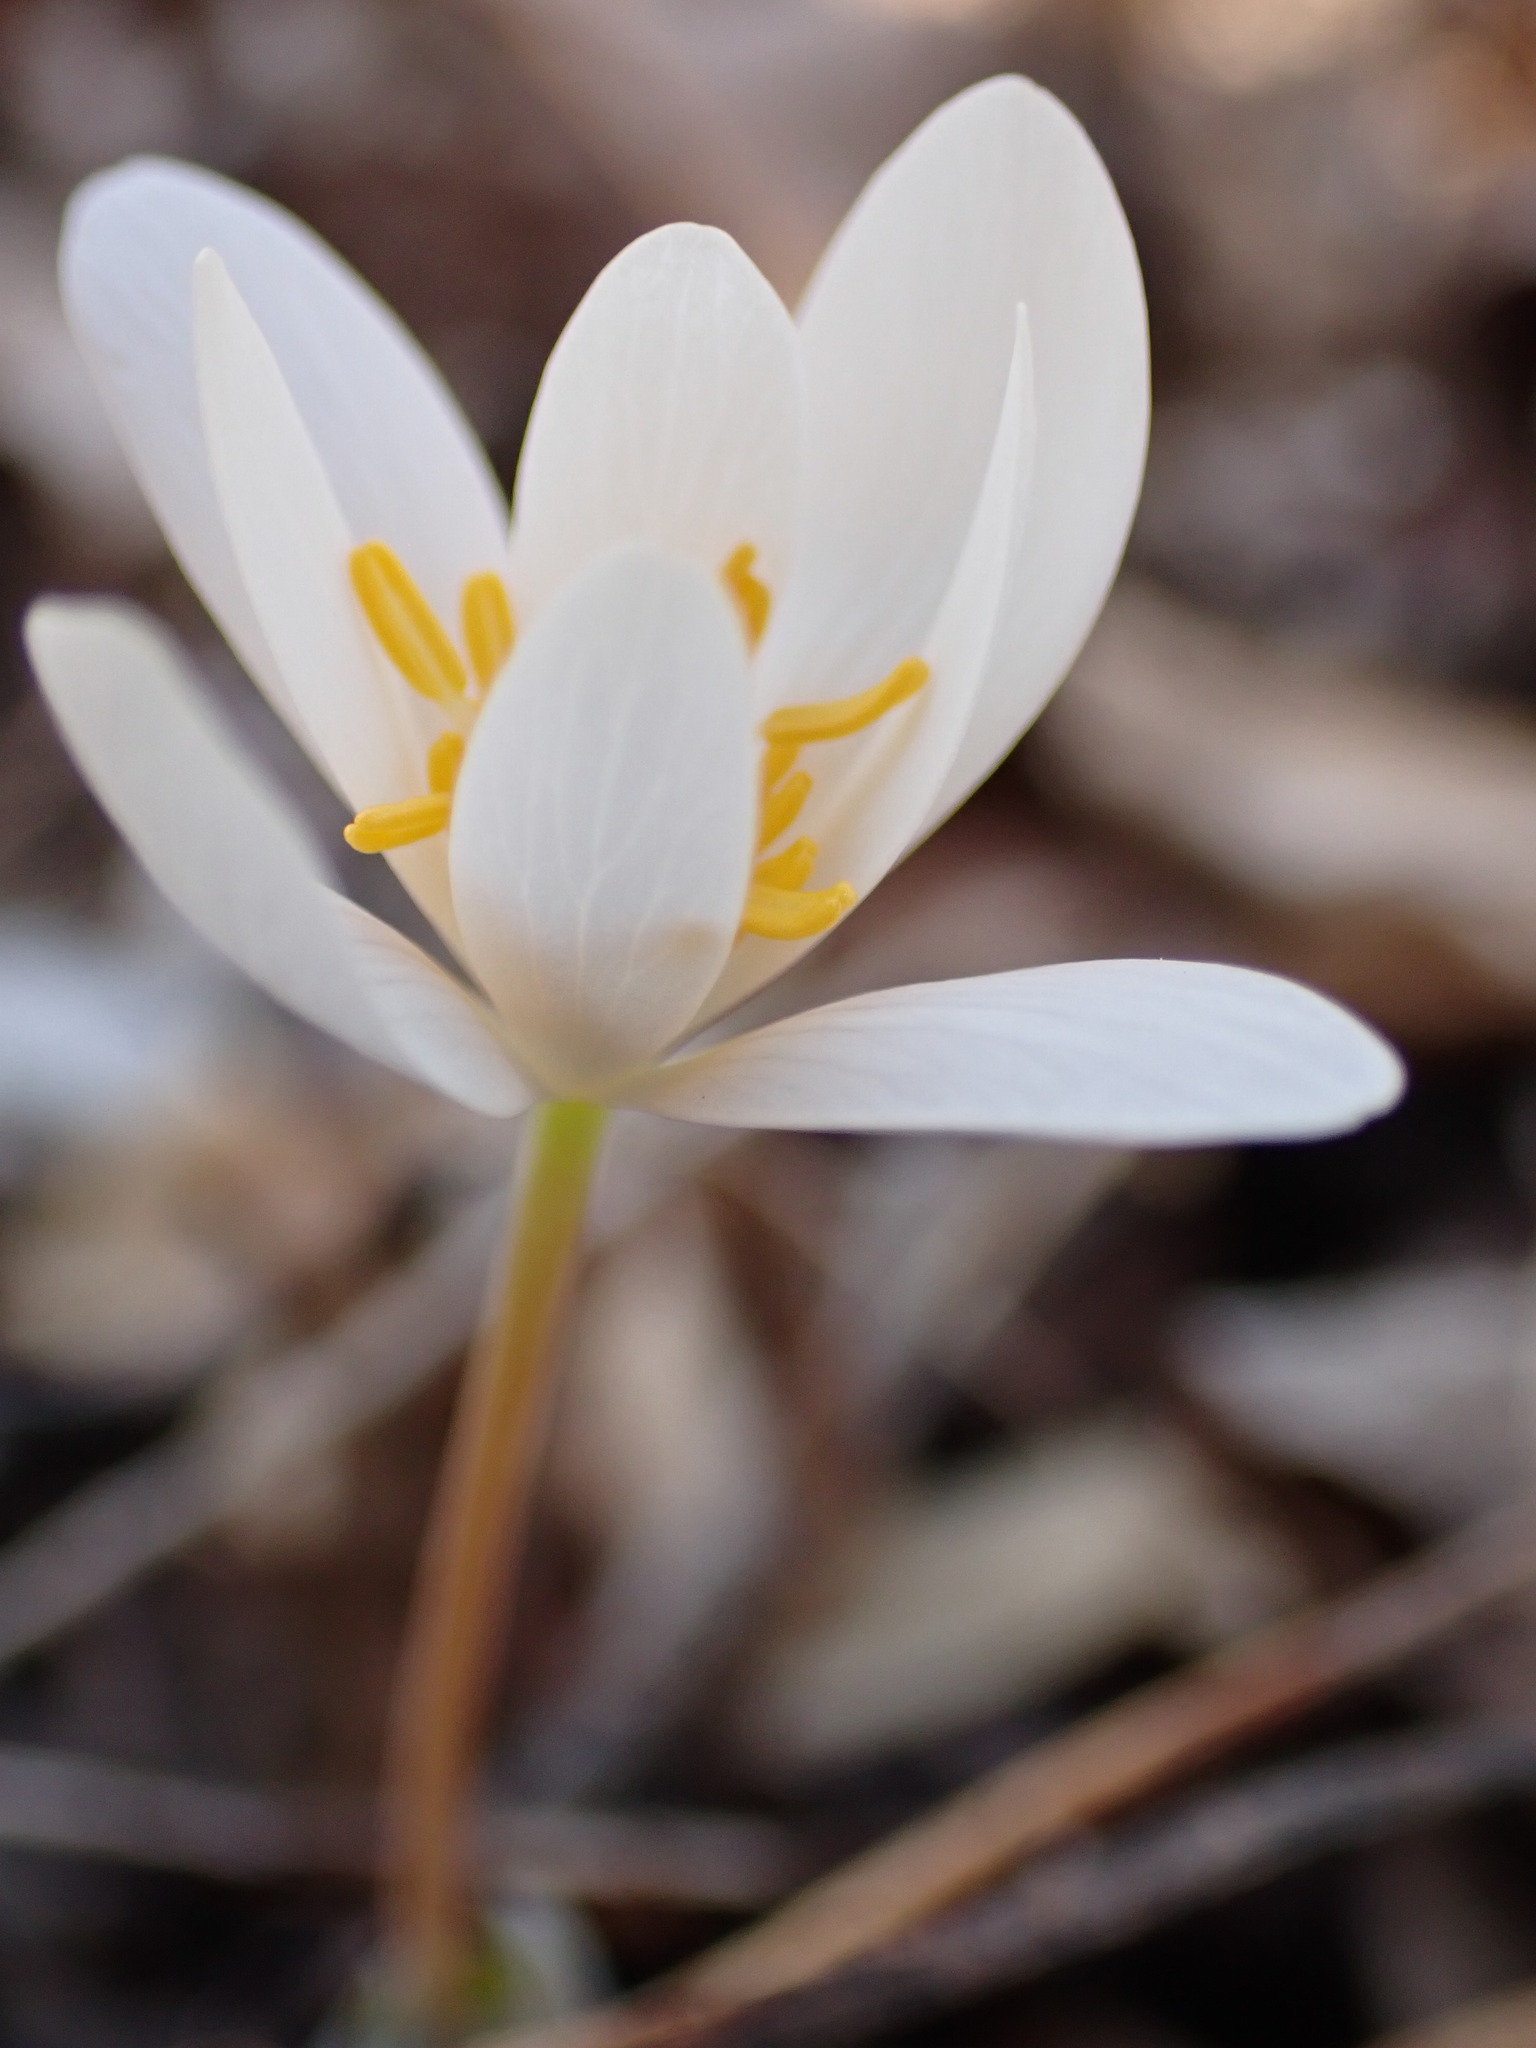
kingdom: Plantae
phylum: Tracheophyta
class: Magnoliopsida
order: Ranunculales
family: Papaveraceae
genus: Sanguinaria
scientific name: Sanguinaria canadensis
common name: Bloodroot
